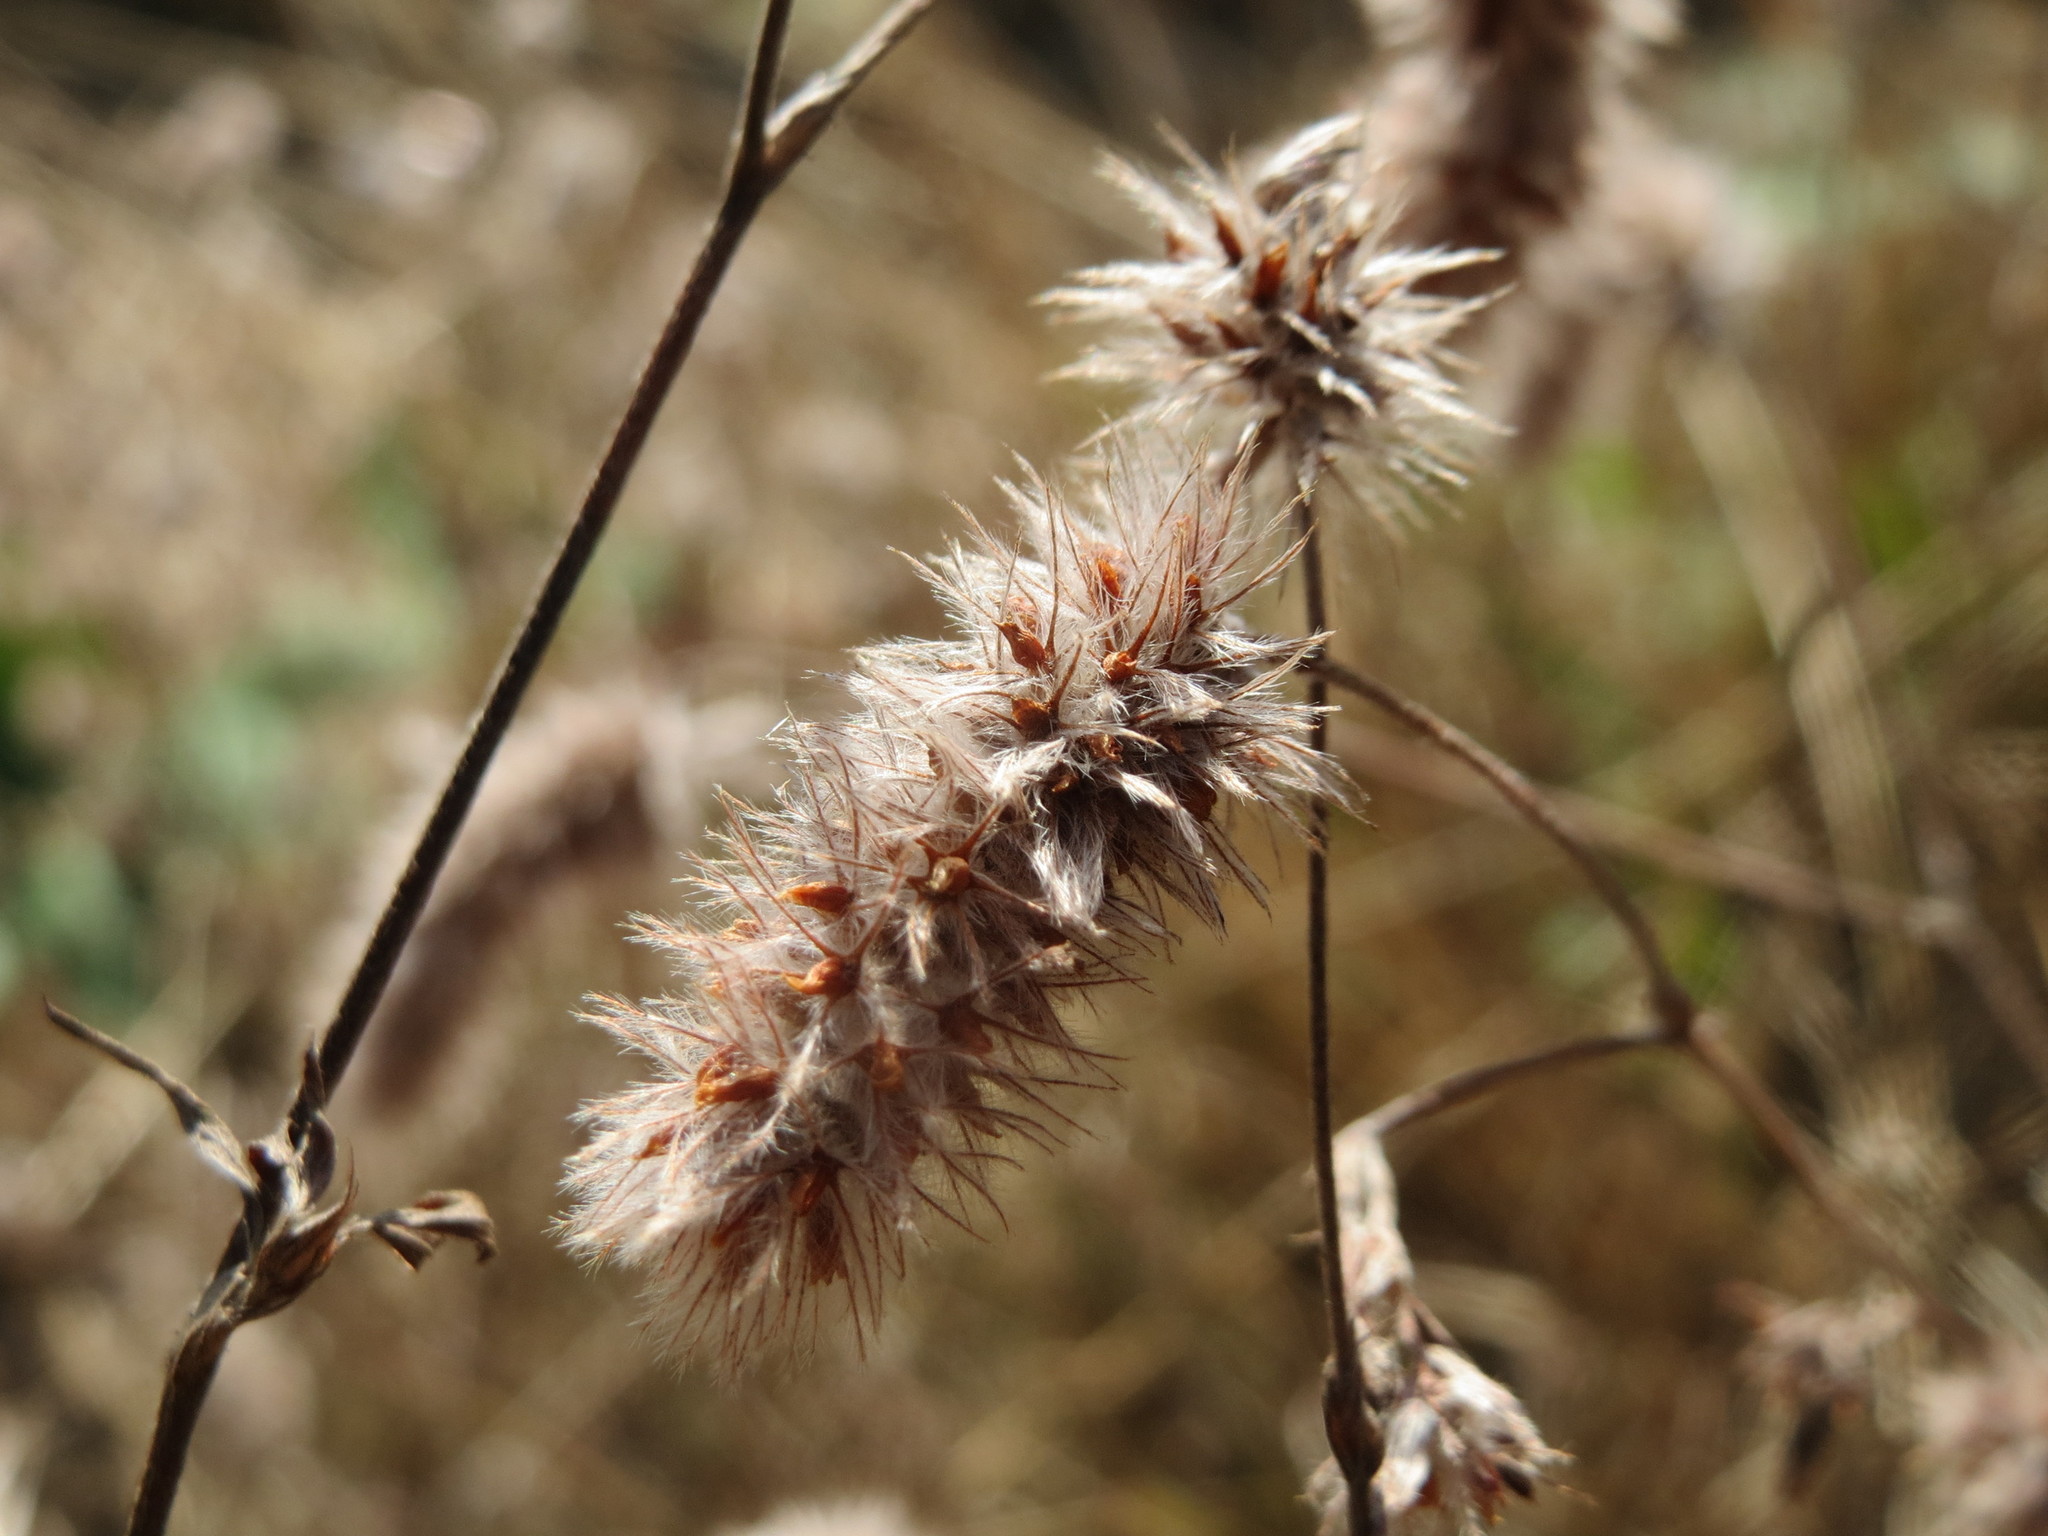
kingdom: Plantae
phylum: Tracheophyta
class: Magnoliopsida
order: Fabales
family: Fabaceae
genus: Trifolium
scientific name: Trifolium arvense
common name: Hare's-foot clover
